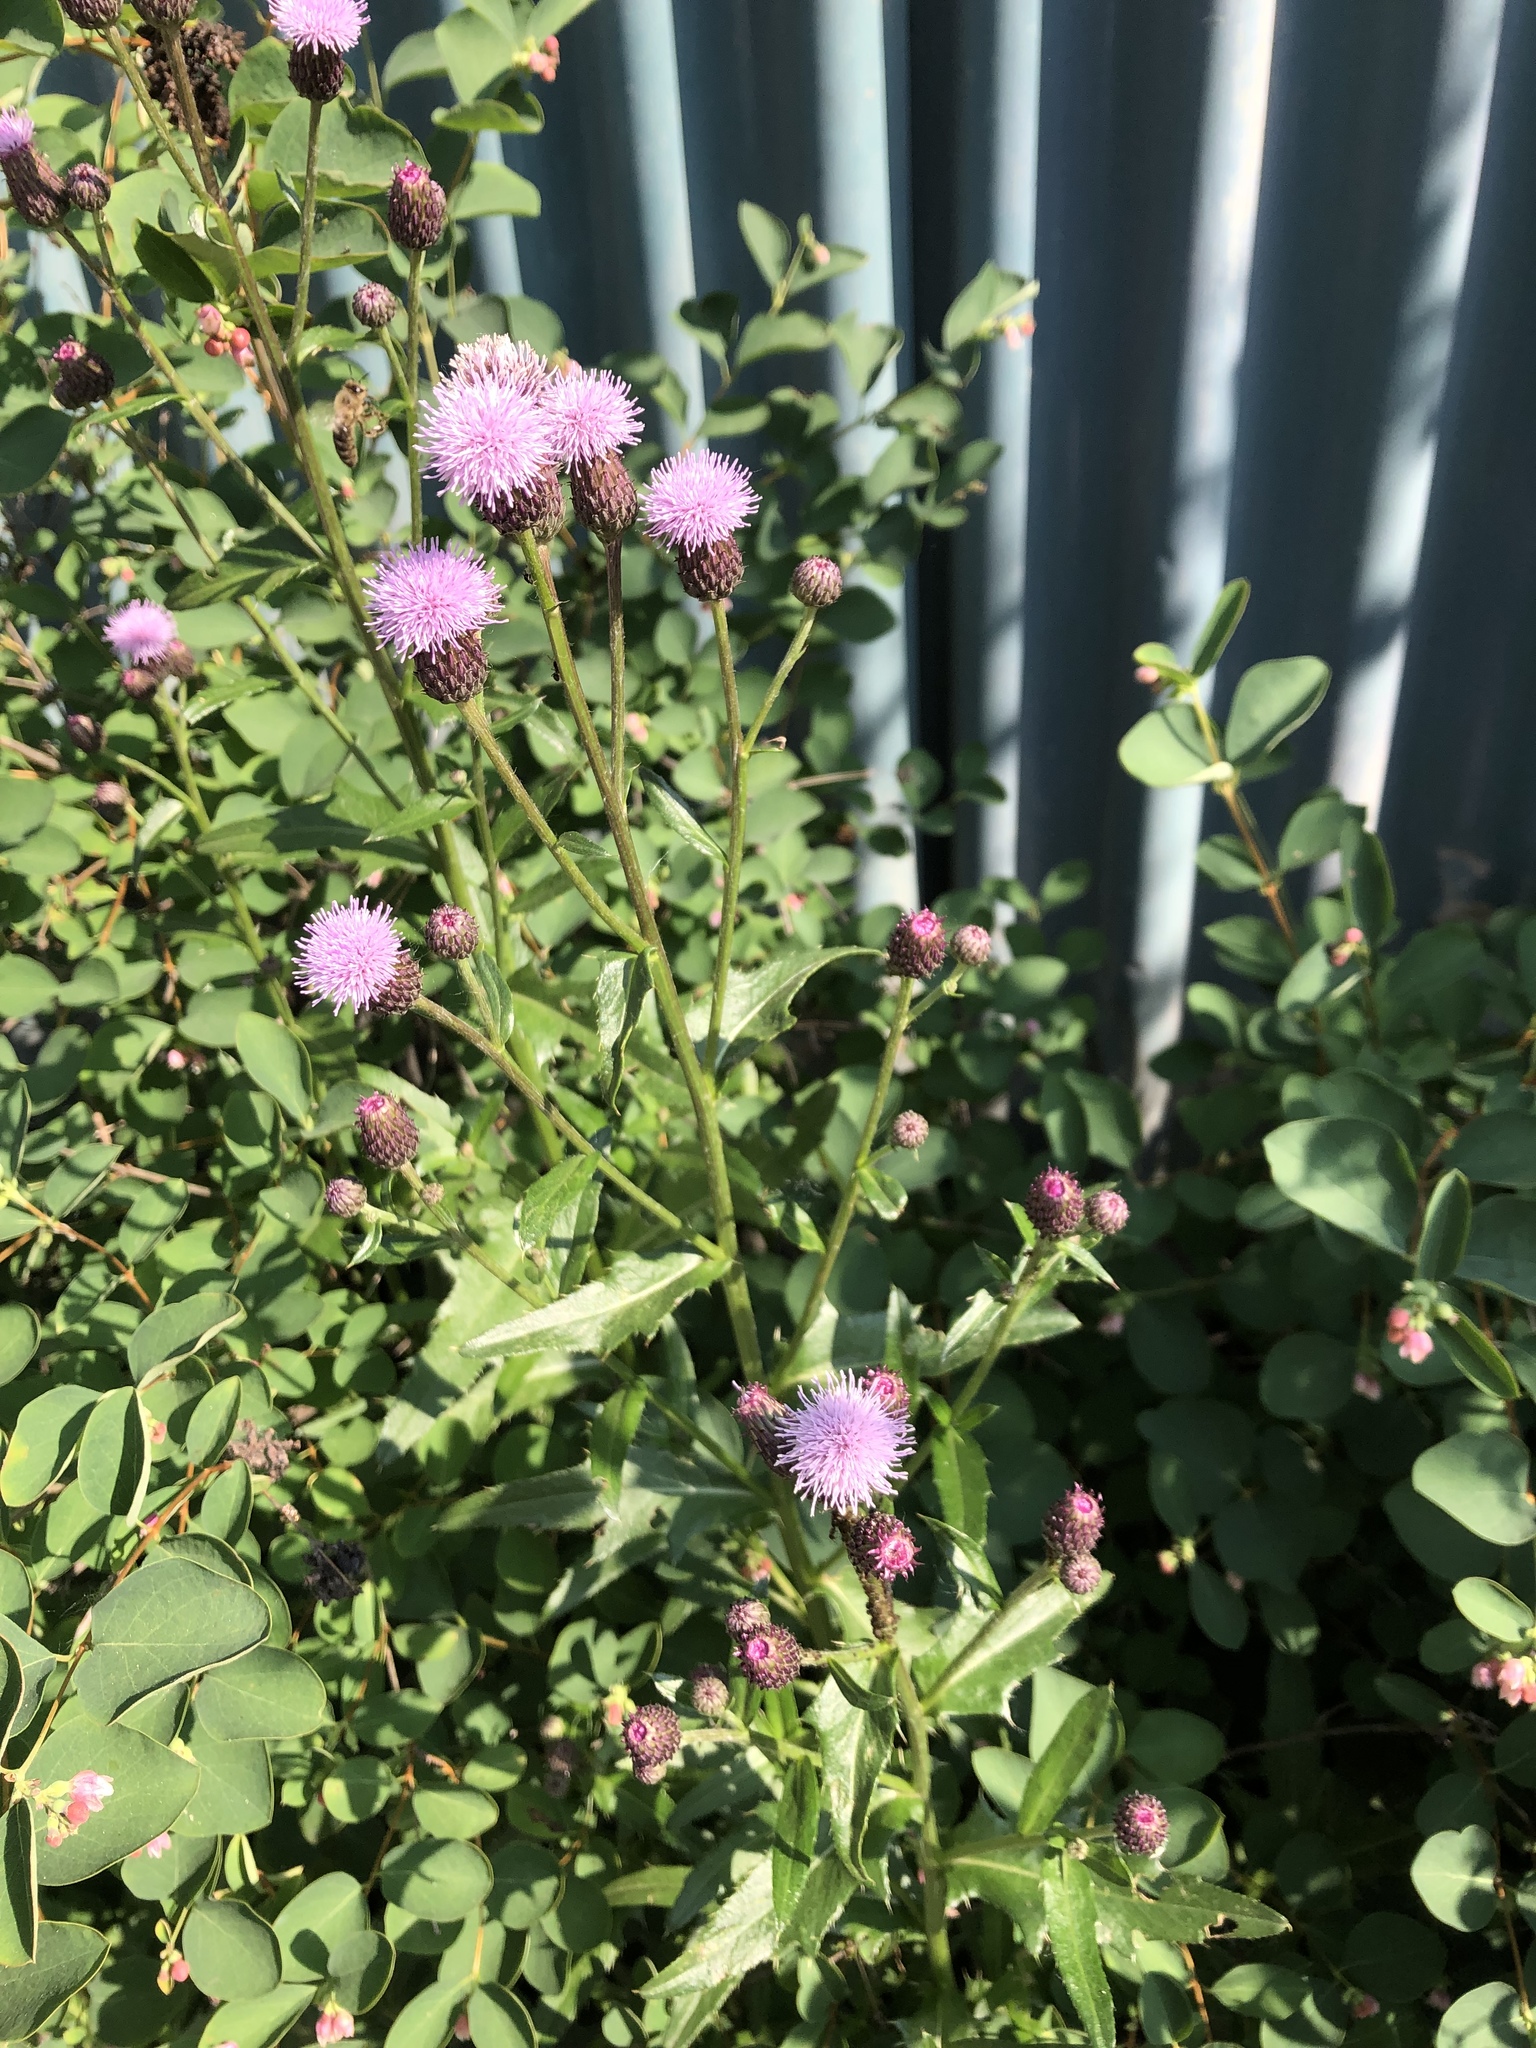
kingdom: Plantae
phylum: Tracheophyta
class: Magnoliopsida
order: Asterales
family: Asteraceae
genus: Cirsium
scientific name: Cirsium arvense
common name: Creeping thistle
